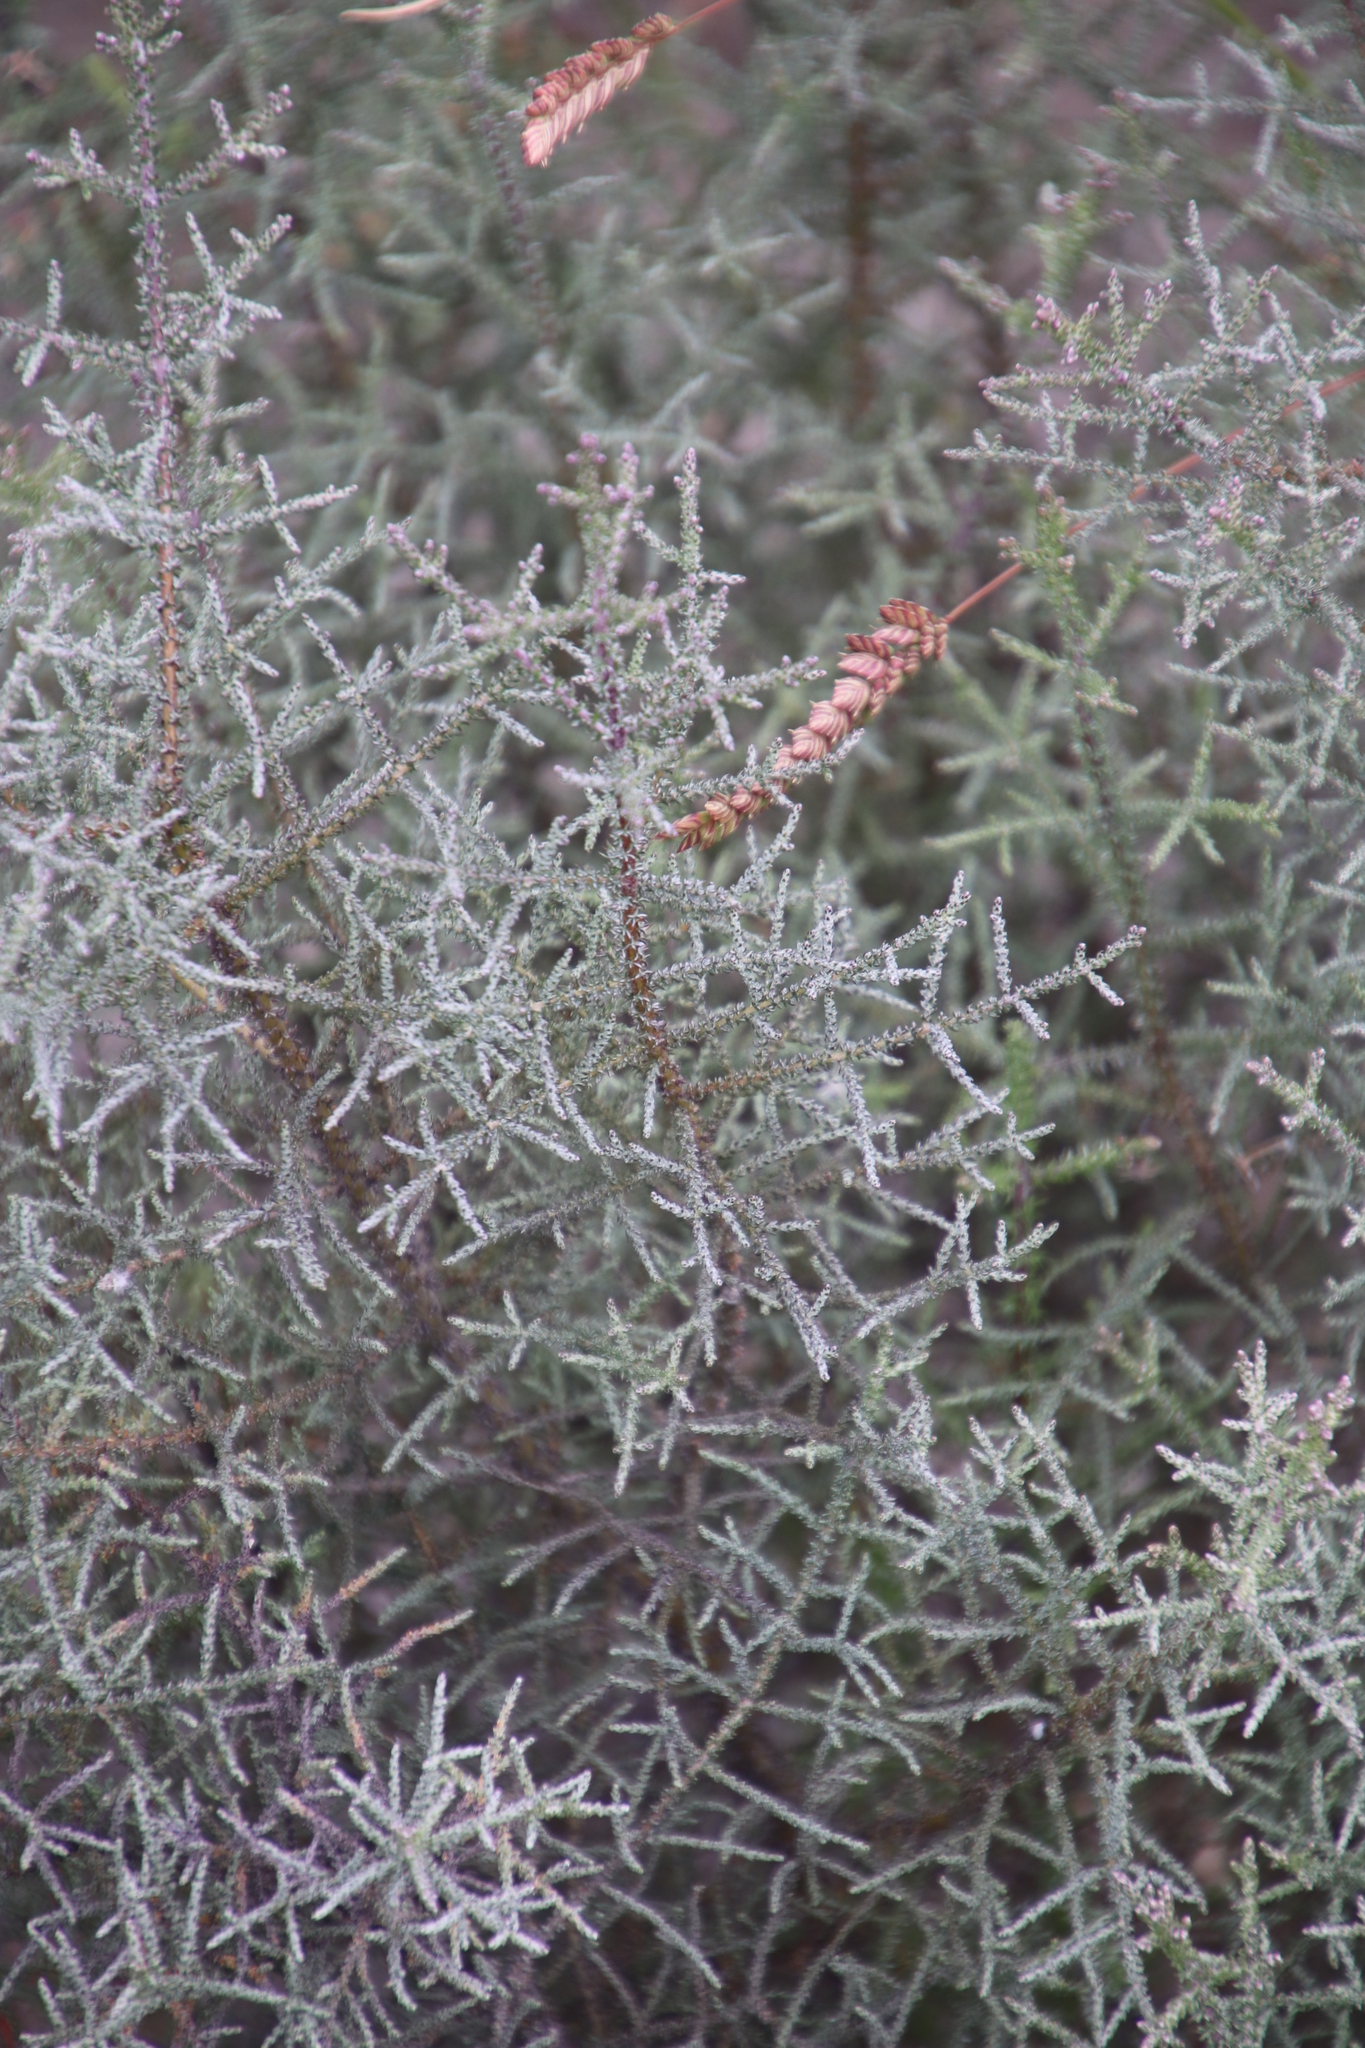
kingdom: Plantae
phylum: Tracheophyta
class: Magnoliopsida
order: Asterales
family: Asteraceae
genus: Seriphium
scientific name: Seriphium plumosum
